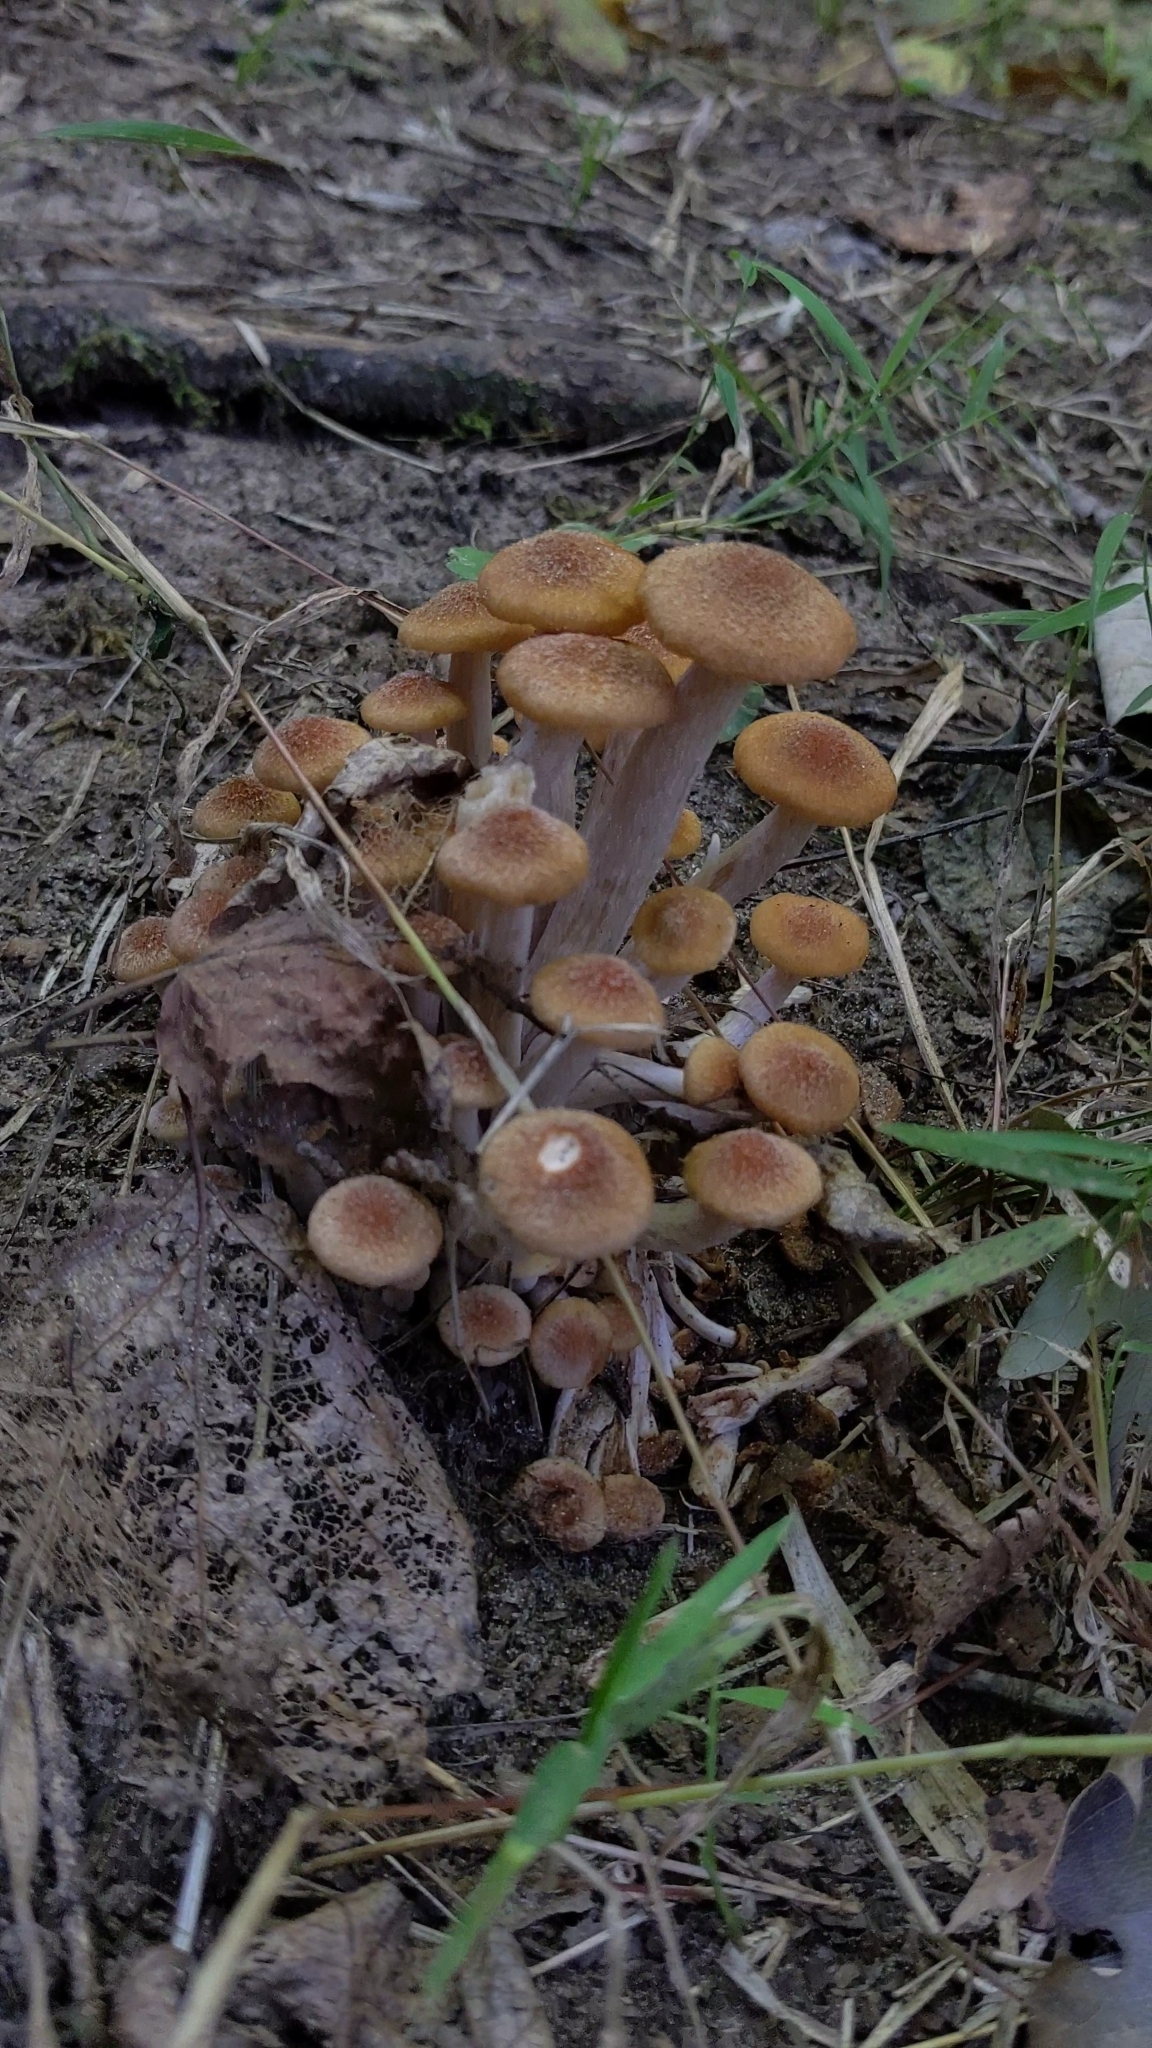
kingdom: Fungi
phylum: Basidiomycota
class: Agaricomycetes
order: Agaricales
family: Physalacriaceae
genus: Desarmillaria
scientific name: Desarmillaria caespitosa
